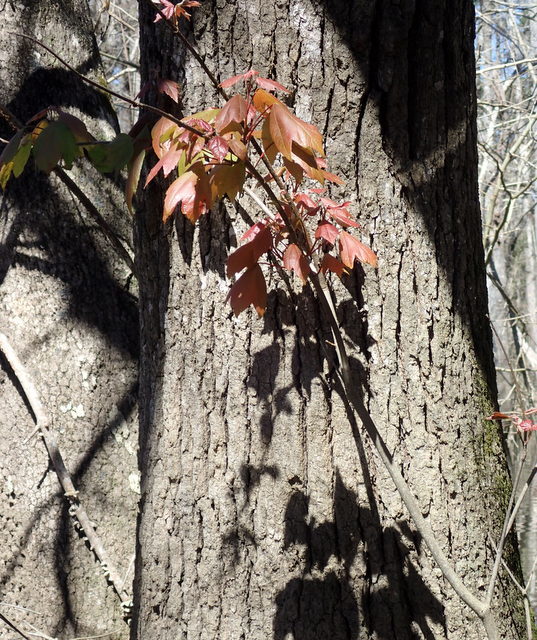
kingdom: Plantae
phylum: Tracheophyta
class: Magnoliopsida
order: Sapindales
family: Sapindaceae
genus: Acer
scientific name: Acer rubrum
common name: Red maple
